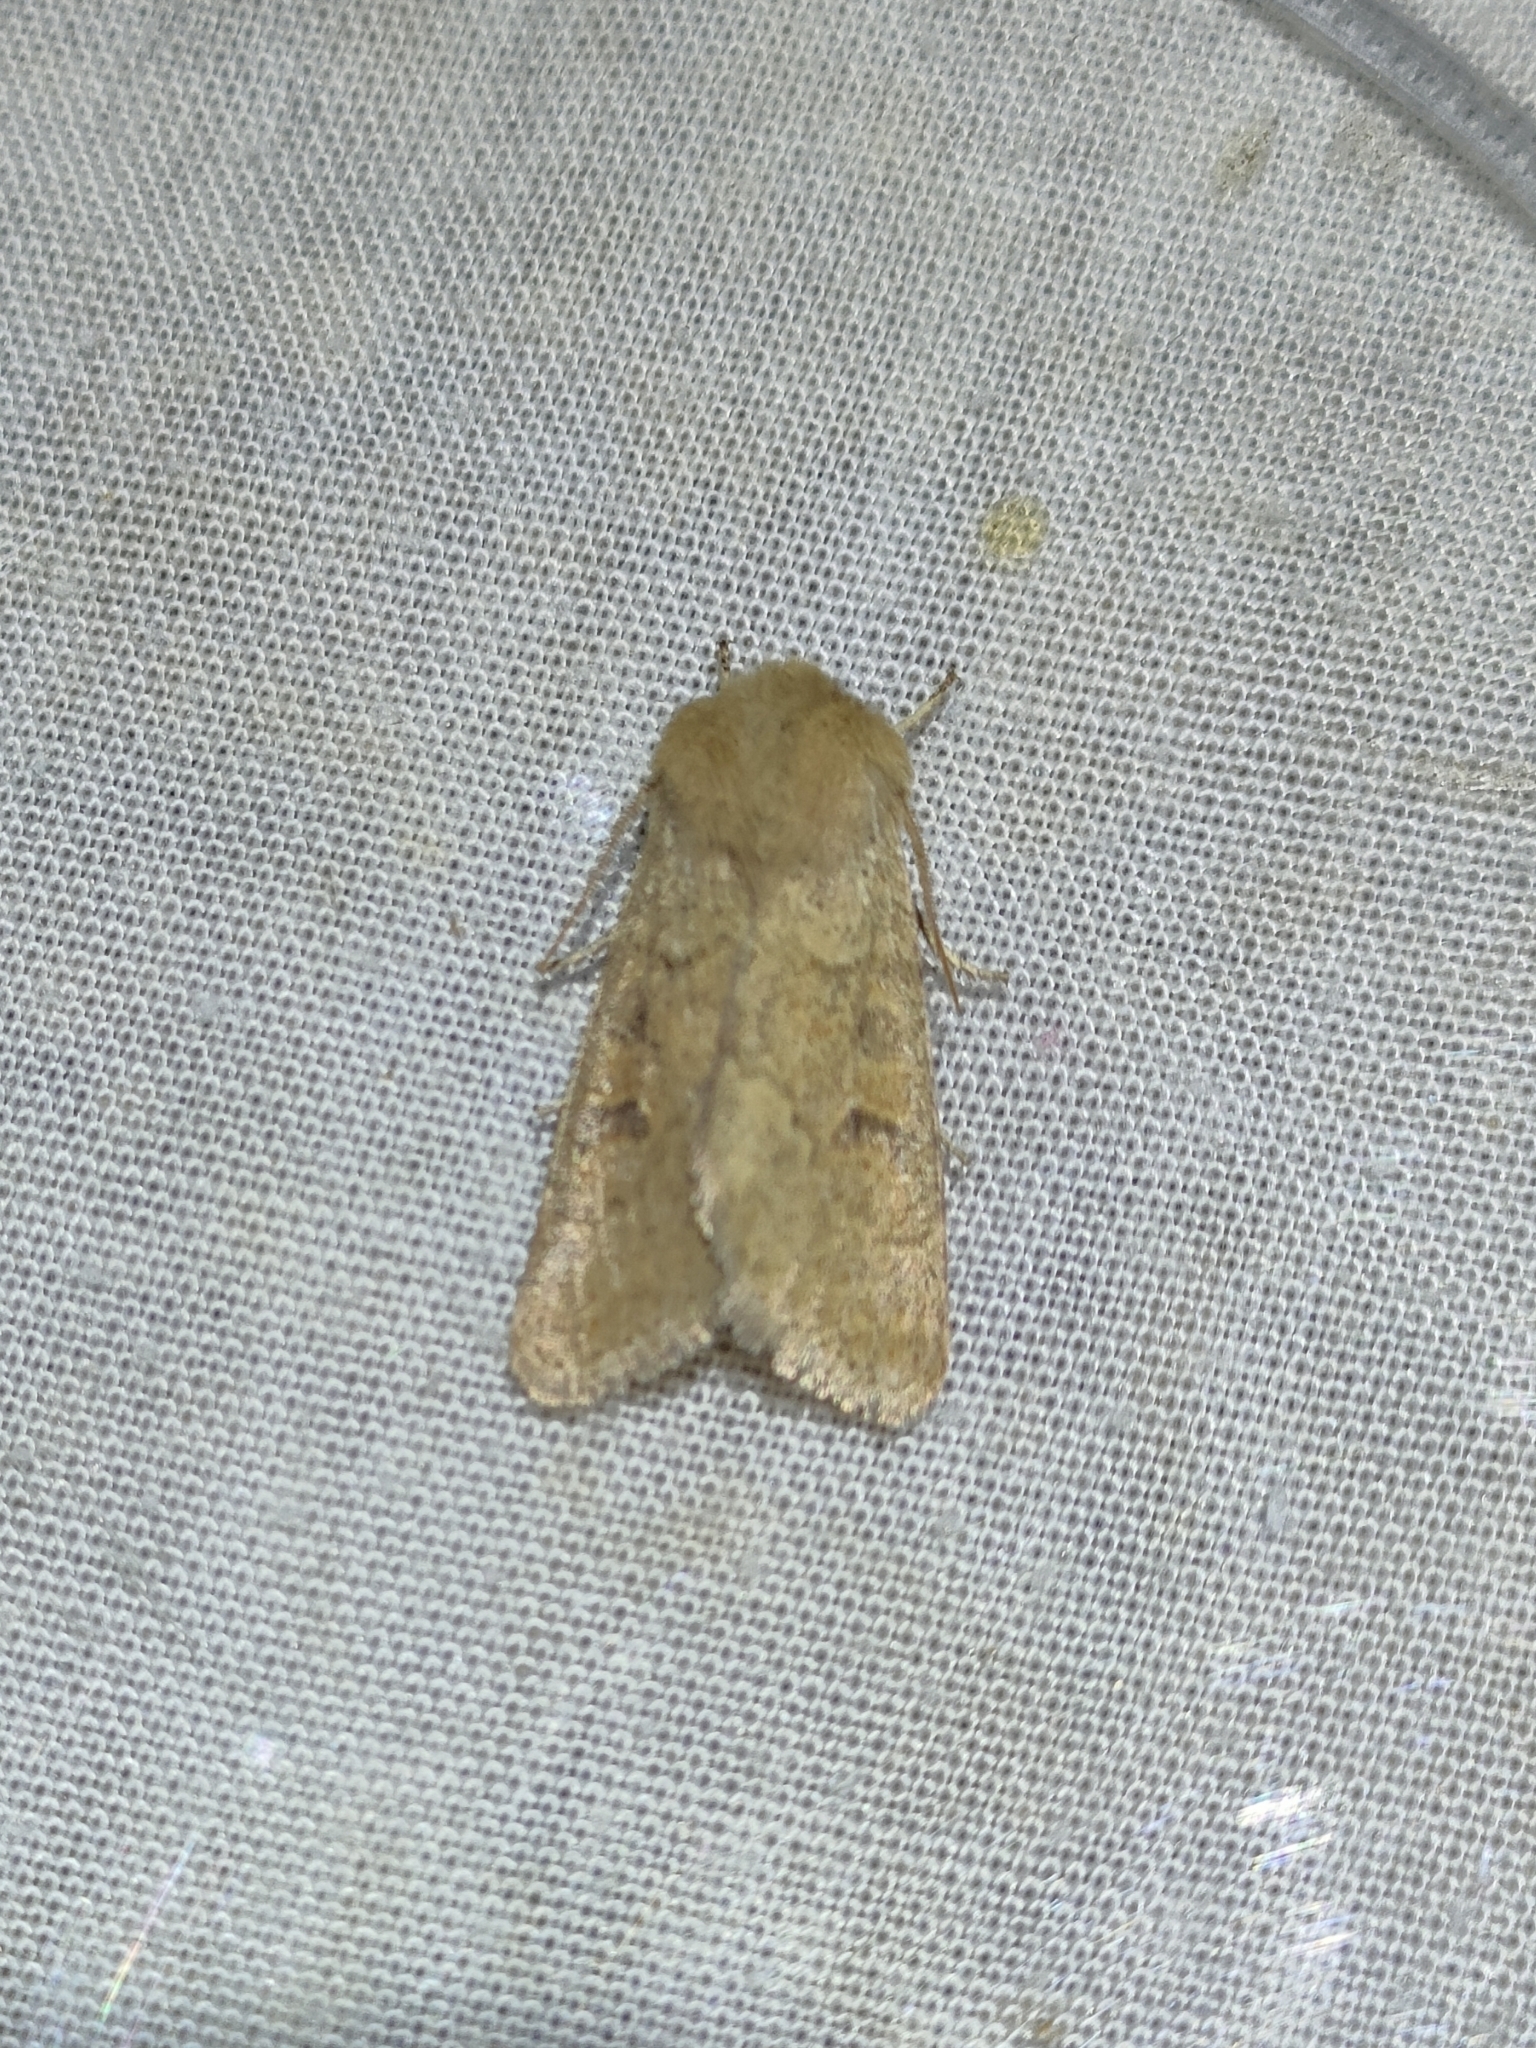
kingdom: Animalia
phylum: Arthropoda
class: Insecta
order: Lepidoptera
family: Noctuidae
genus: Orthosia
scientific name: Orthosia miniosa
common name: Blossom underwing
